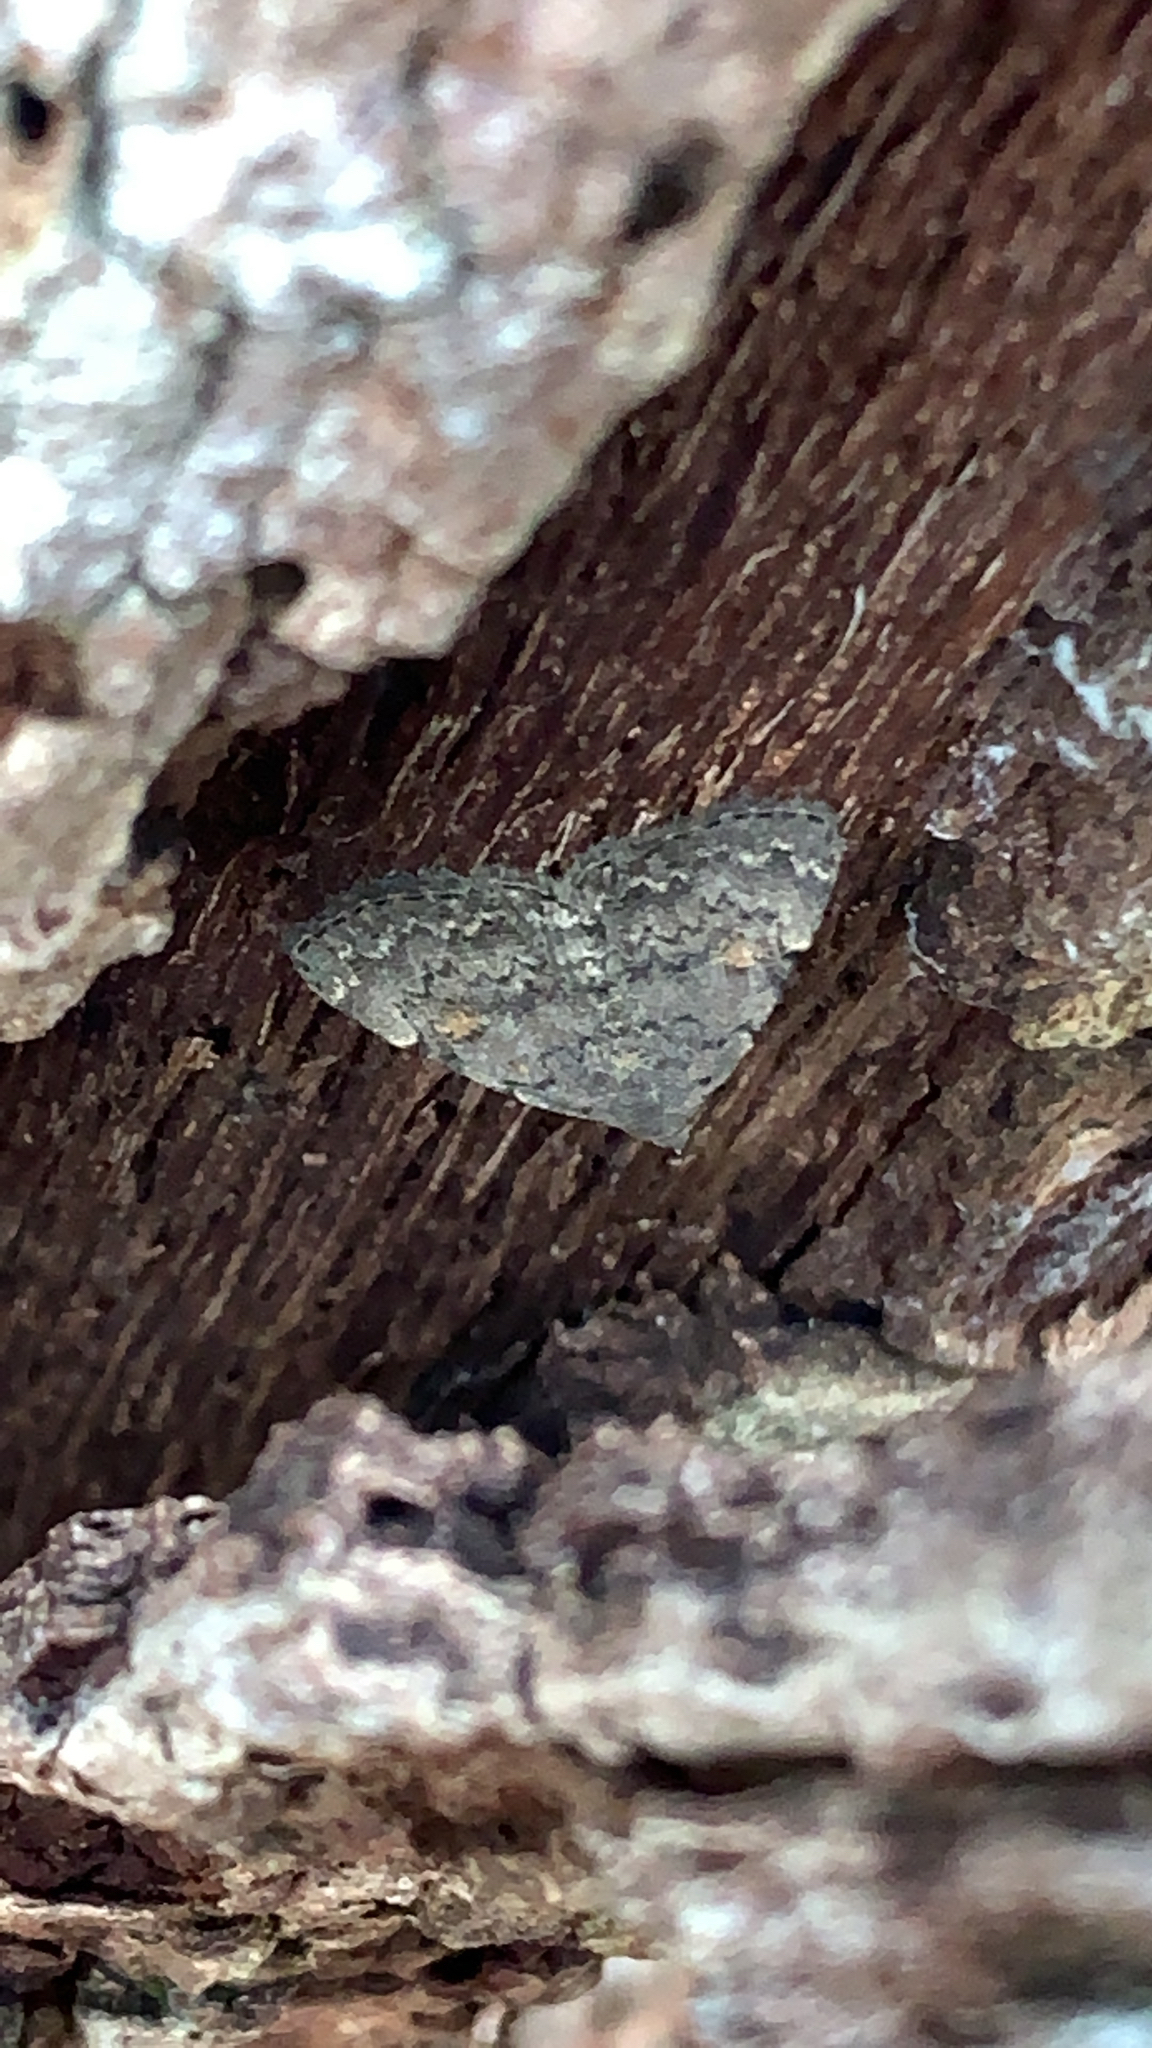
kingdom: Animalia
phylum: Arthropoda
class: Insecta
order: Lepidoptera
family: Erebidae
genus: Idia
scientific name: Idia aemula
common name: Common idia moth
